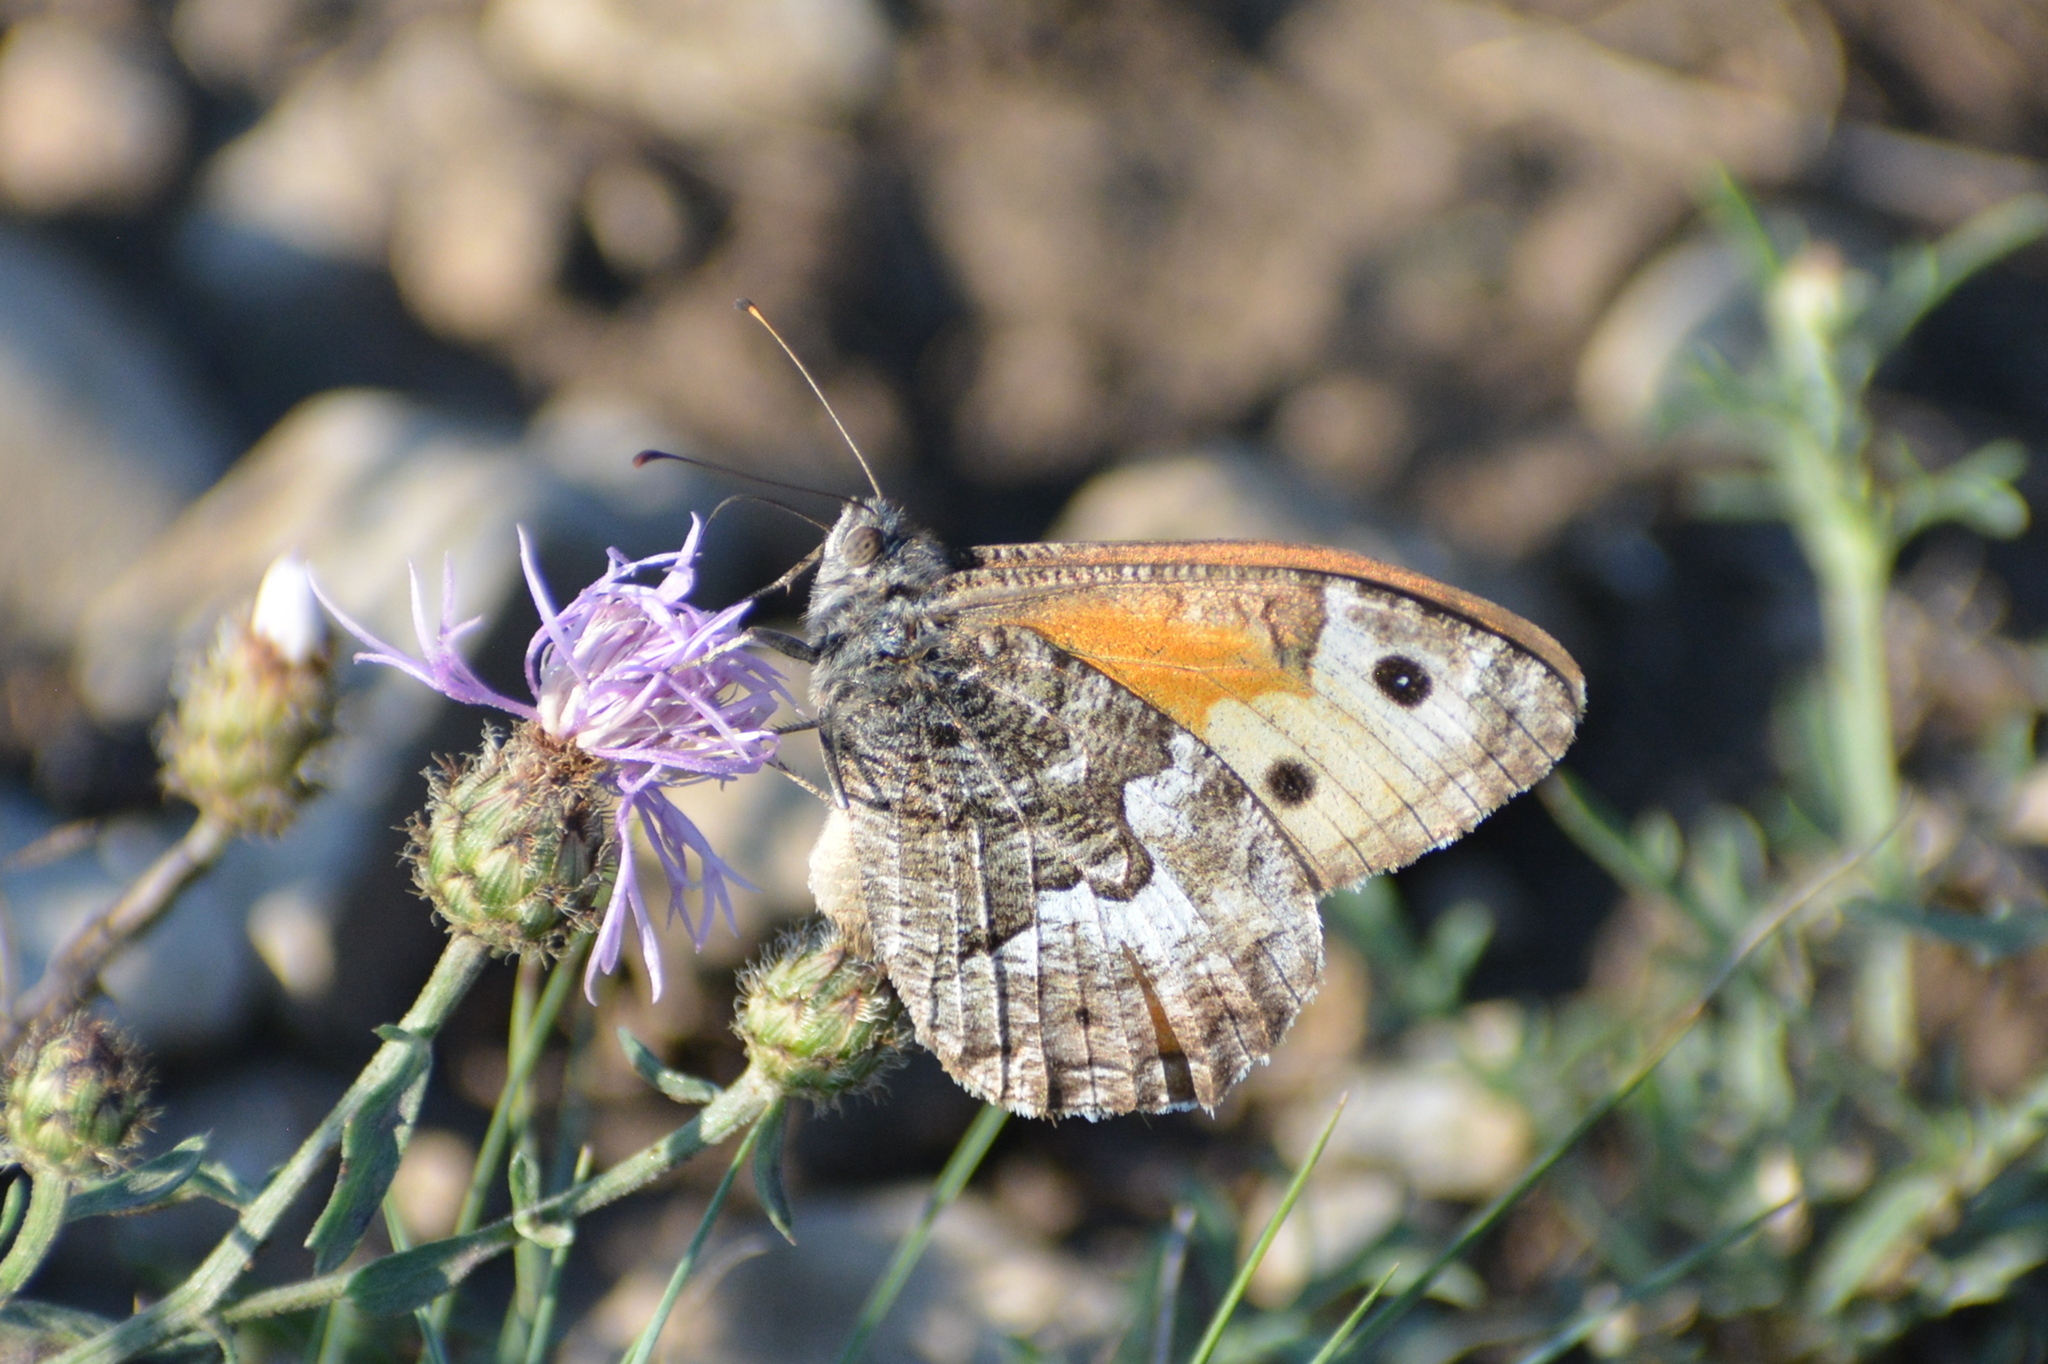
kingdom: Animalia
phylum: Arthropoda
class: Insecta
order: Lepidoptera
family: Nymphalidae
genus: Hipparchia
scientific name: Hipparchia semele
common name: Grayling
